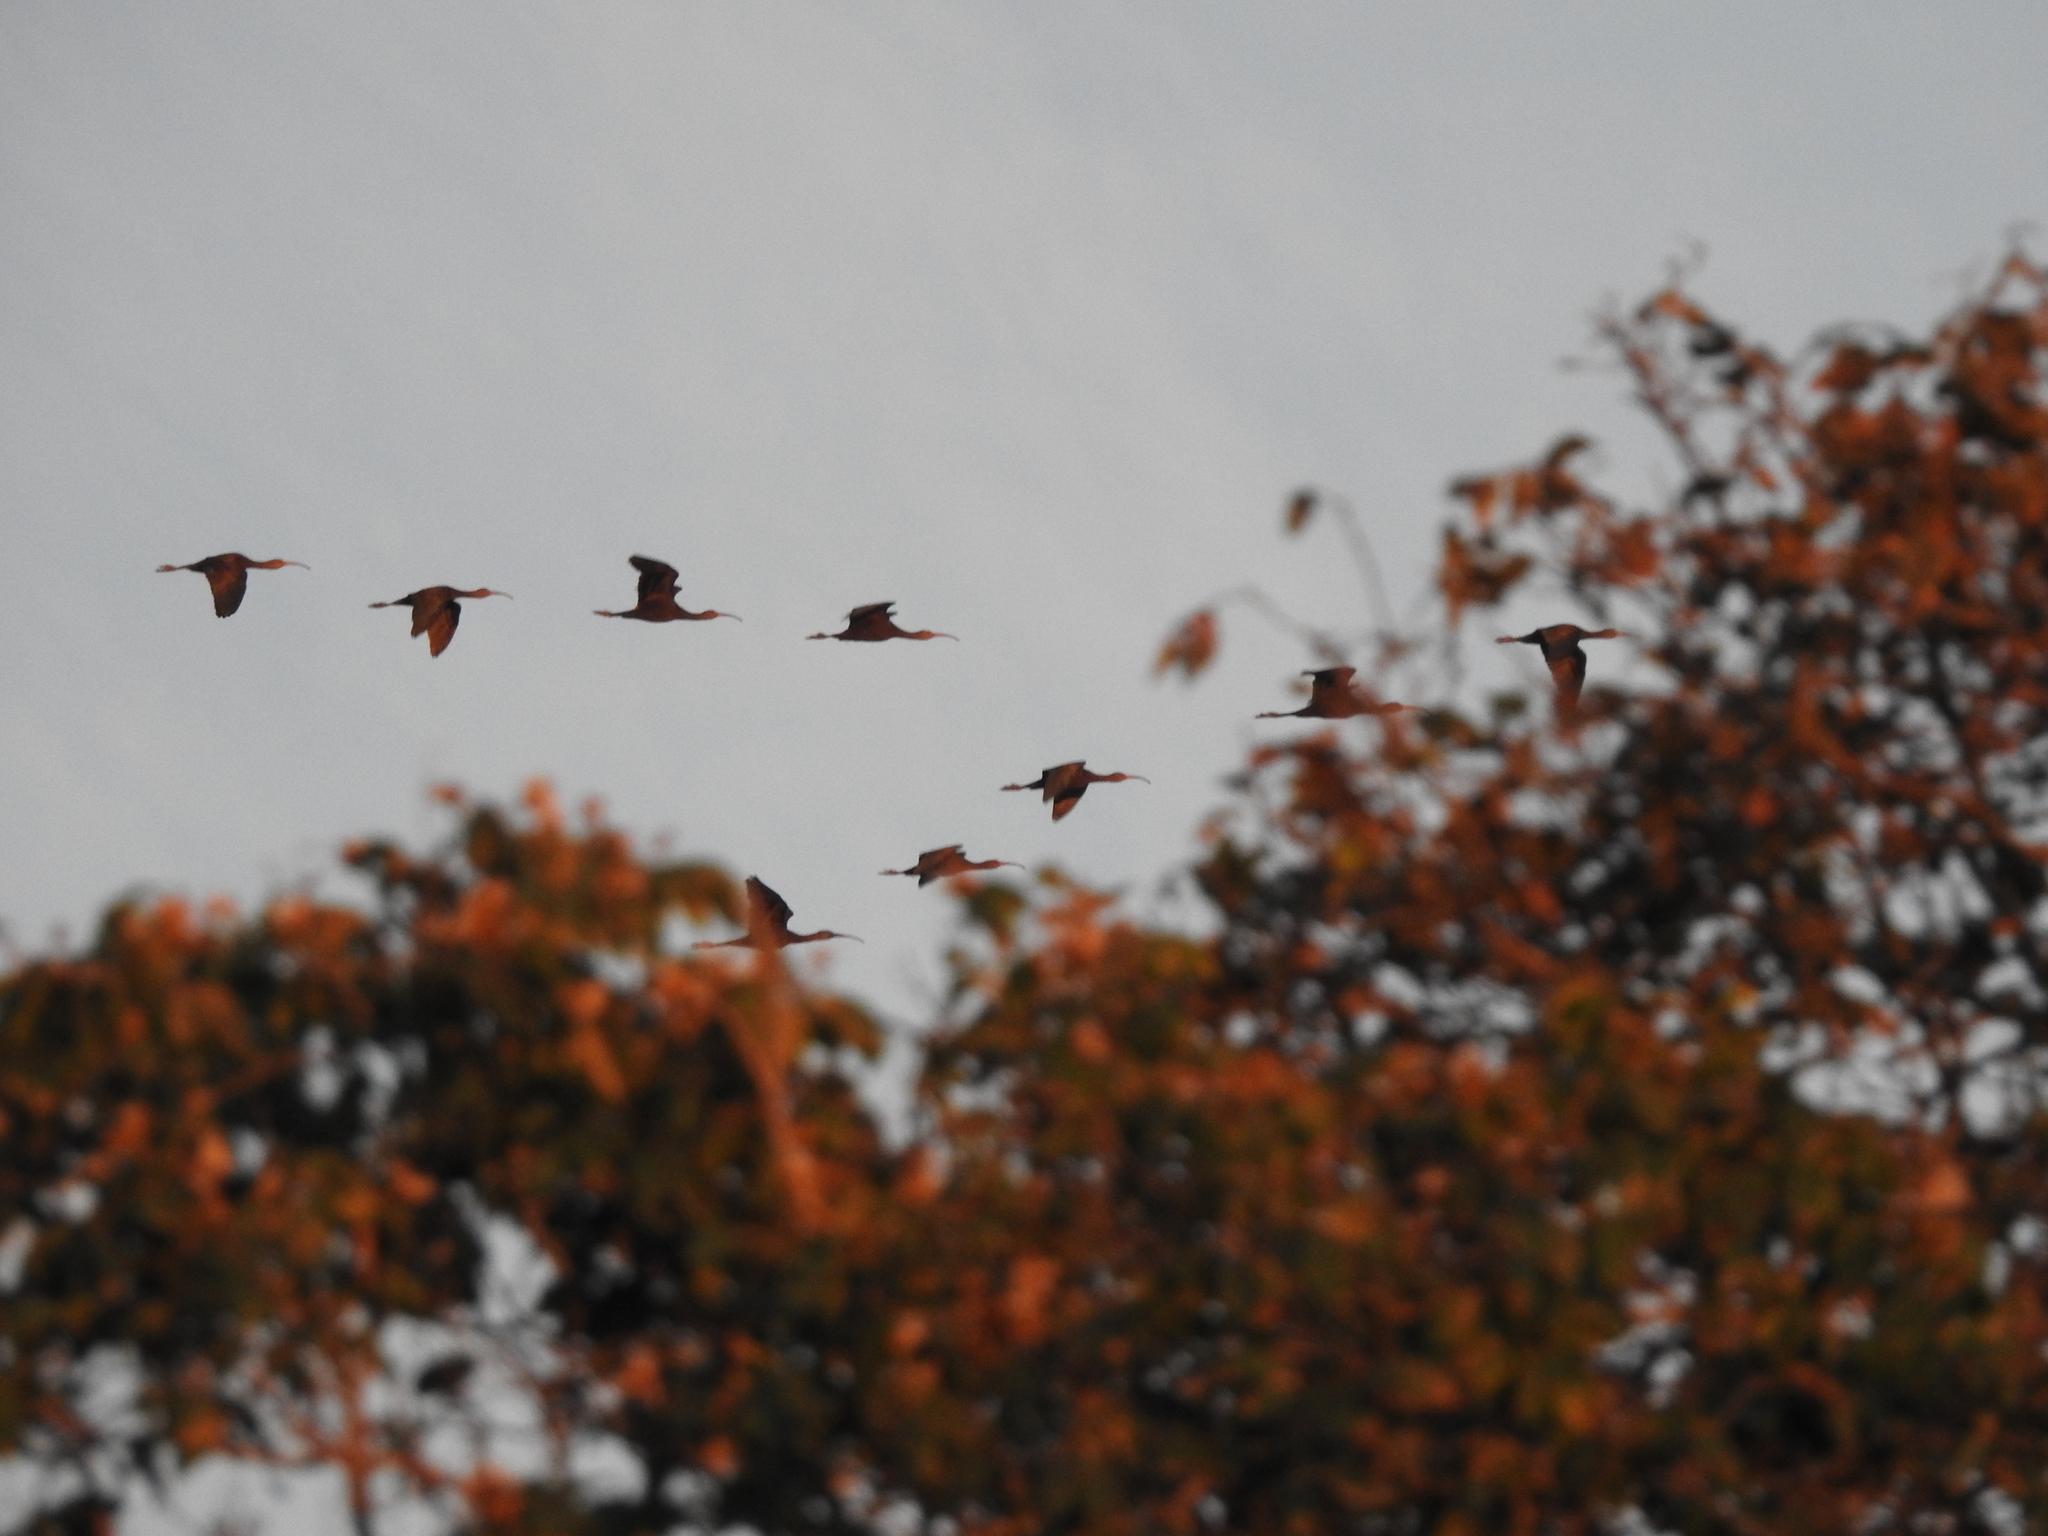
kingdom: Animalia
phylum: Chordata
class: Aves
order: Pelecaniformes
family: Threskiornithidae
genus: Plegadis
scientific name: Plegadis chihi
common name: White-faced ibis
